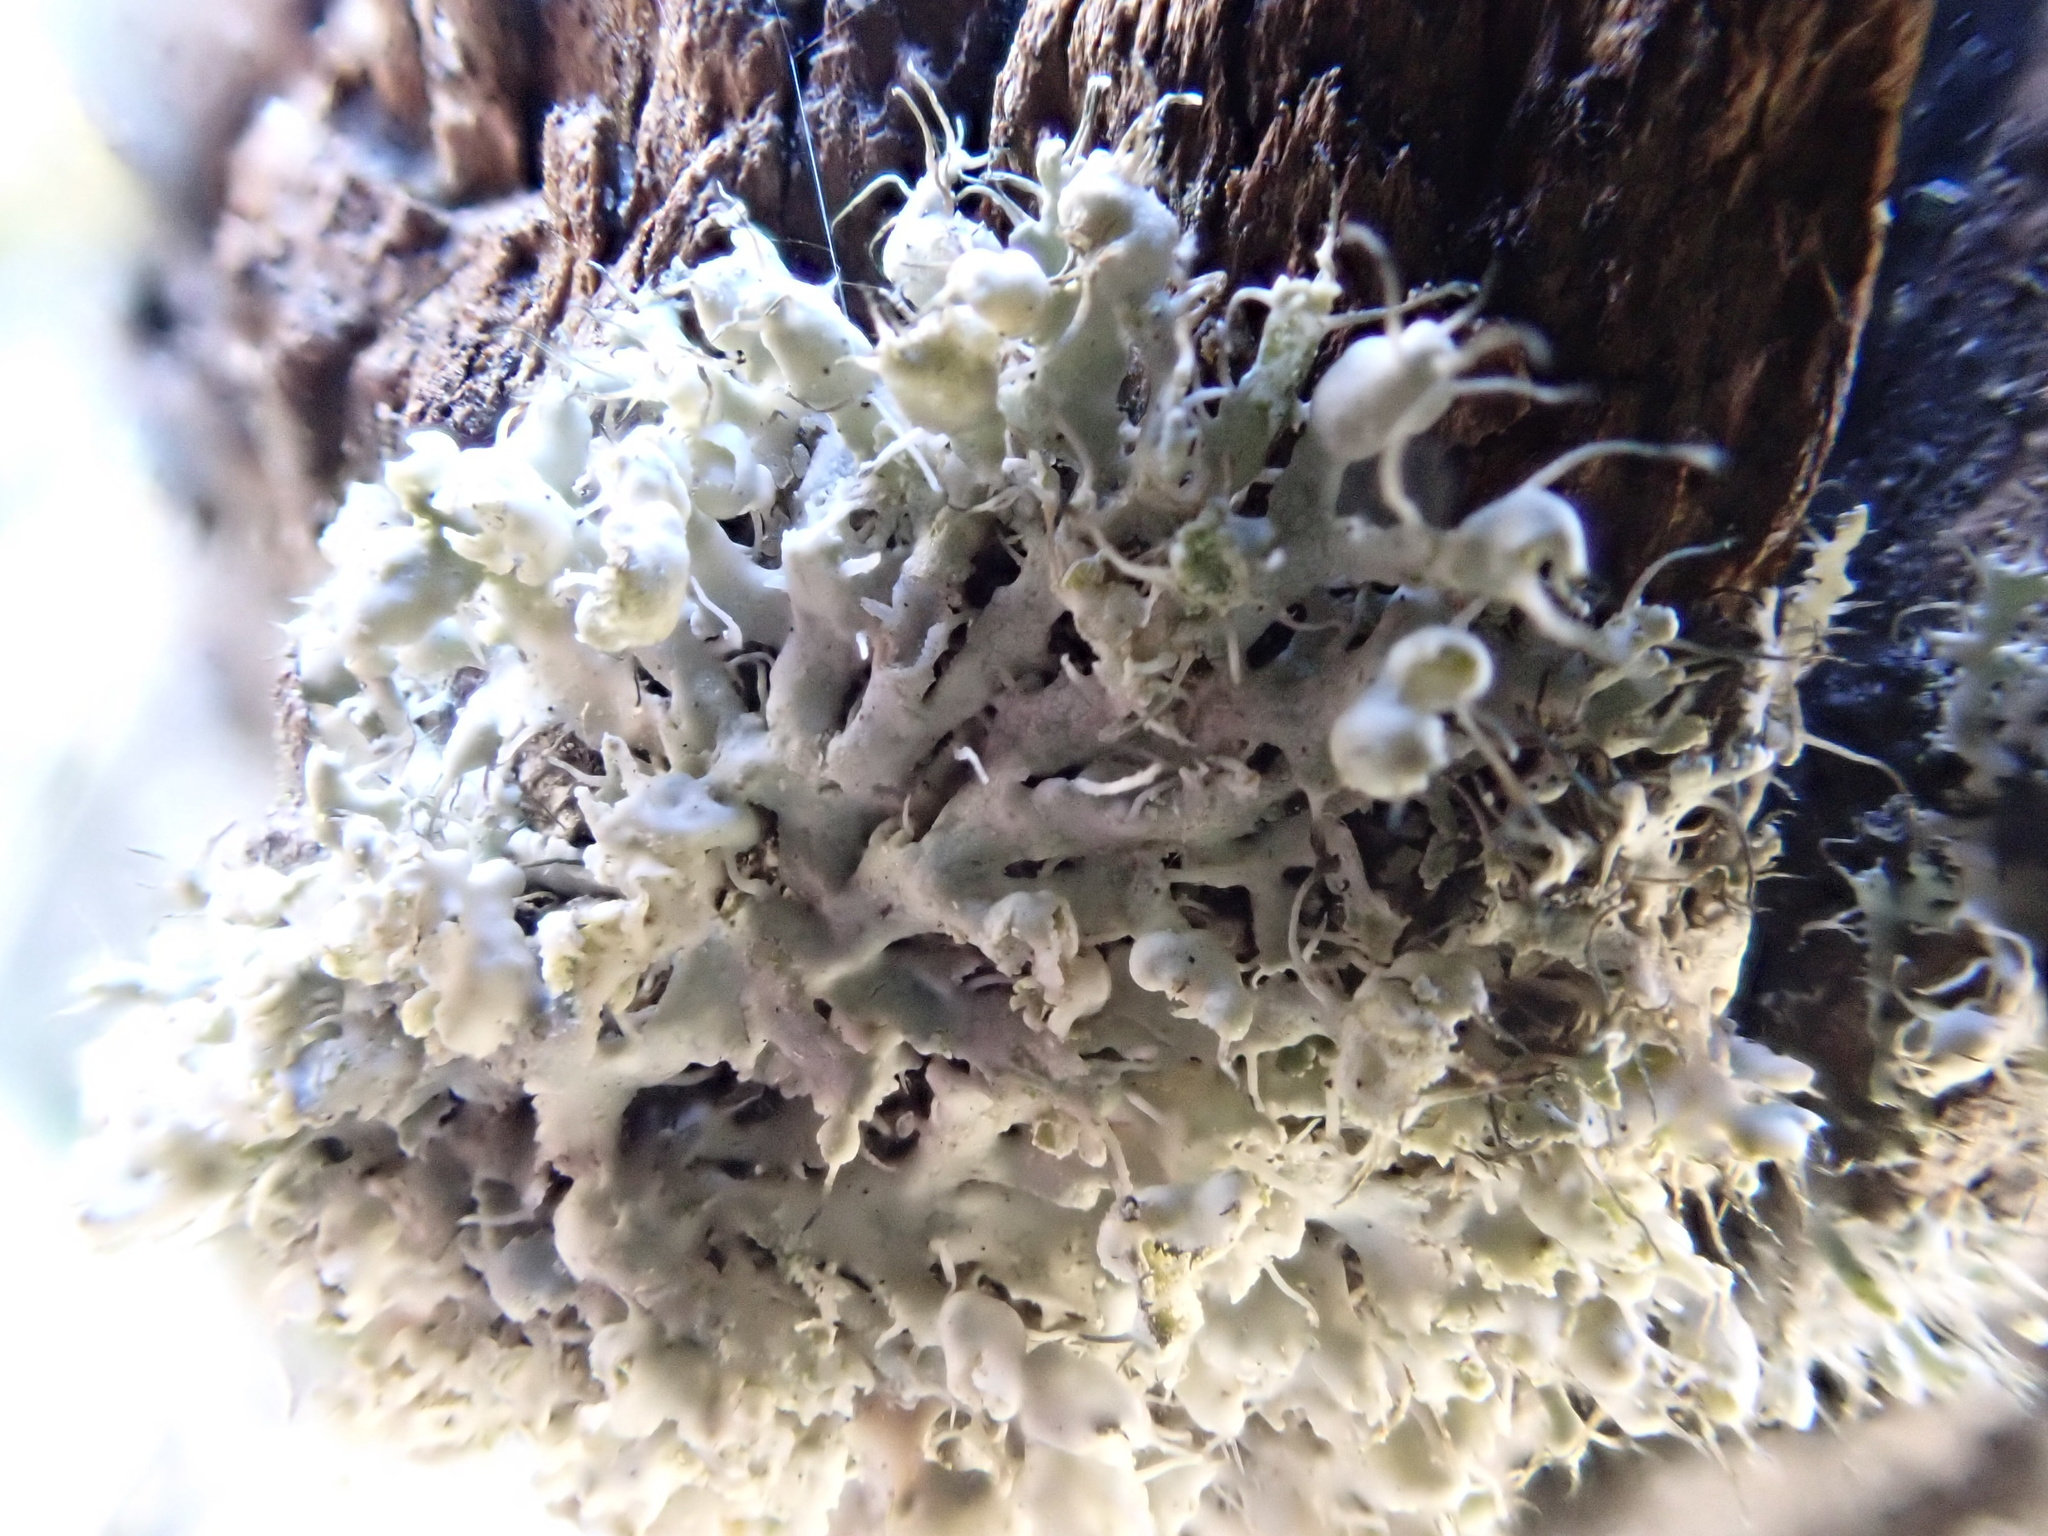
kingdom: Fungi
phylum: Ascomycota
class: Lecanoromycetes
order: Caliciales
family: Physciaceae
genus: Physcia
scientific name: Physcia adscendens
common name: Hooded rosette lichen
